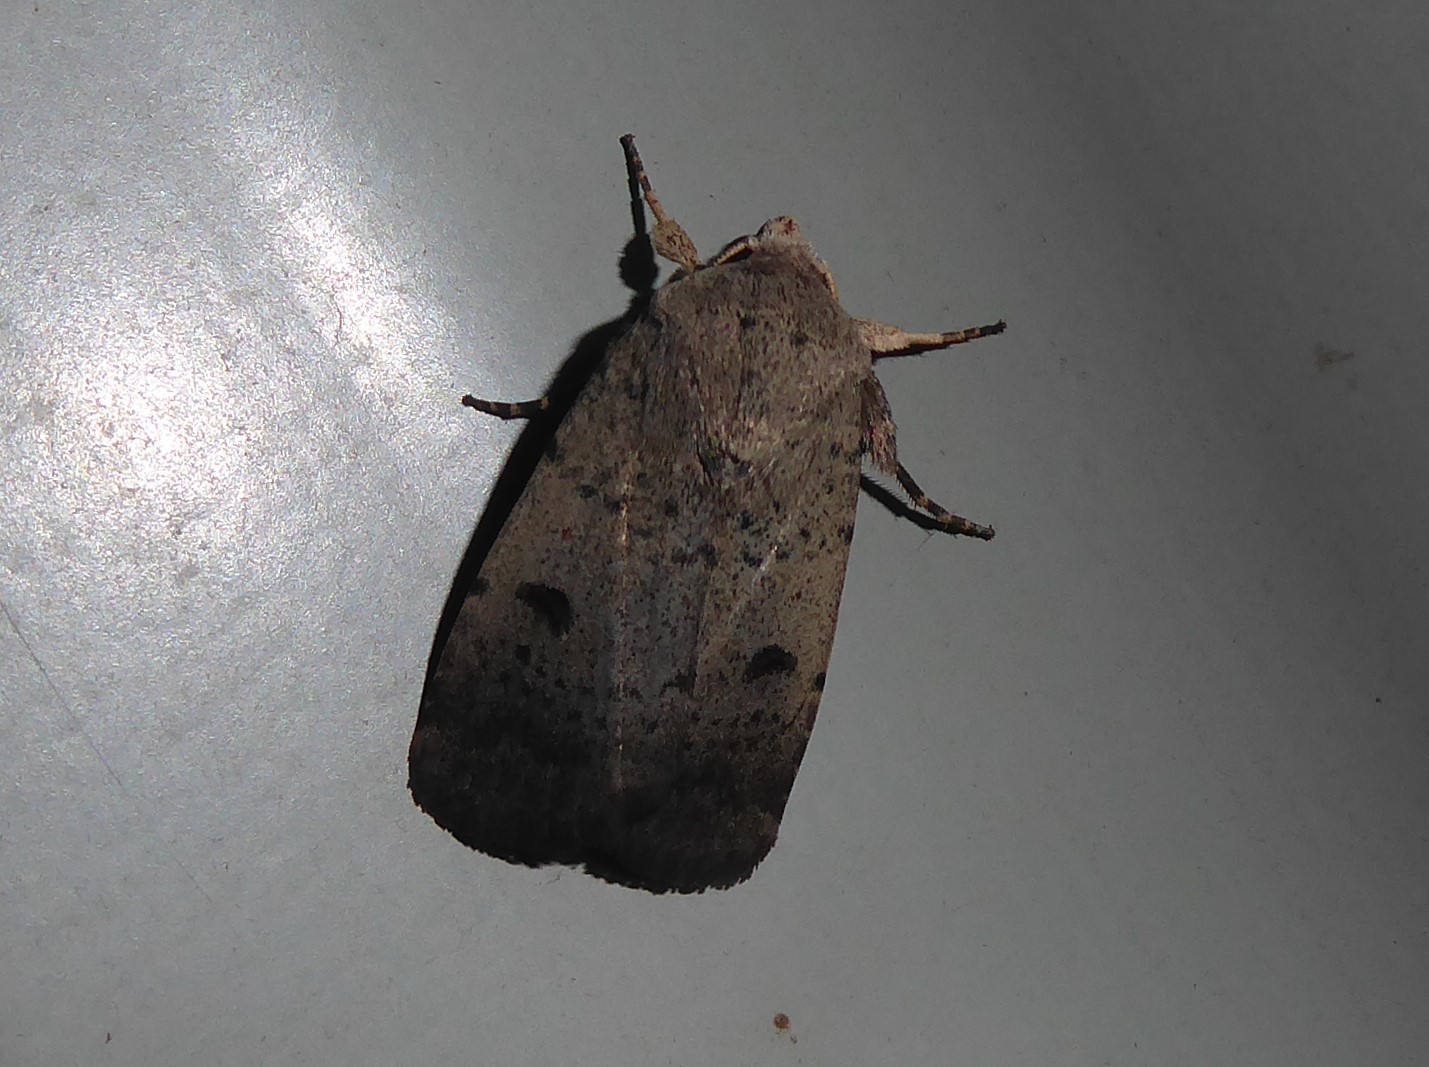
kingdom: Animalia
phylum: Arthropoda
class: Insecta
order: Lepidoptera
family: Noctuidae
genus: Proteuxoa
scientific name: Proteuxoa hypochalchis
